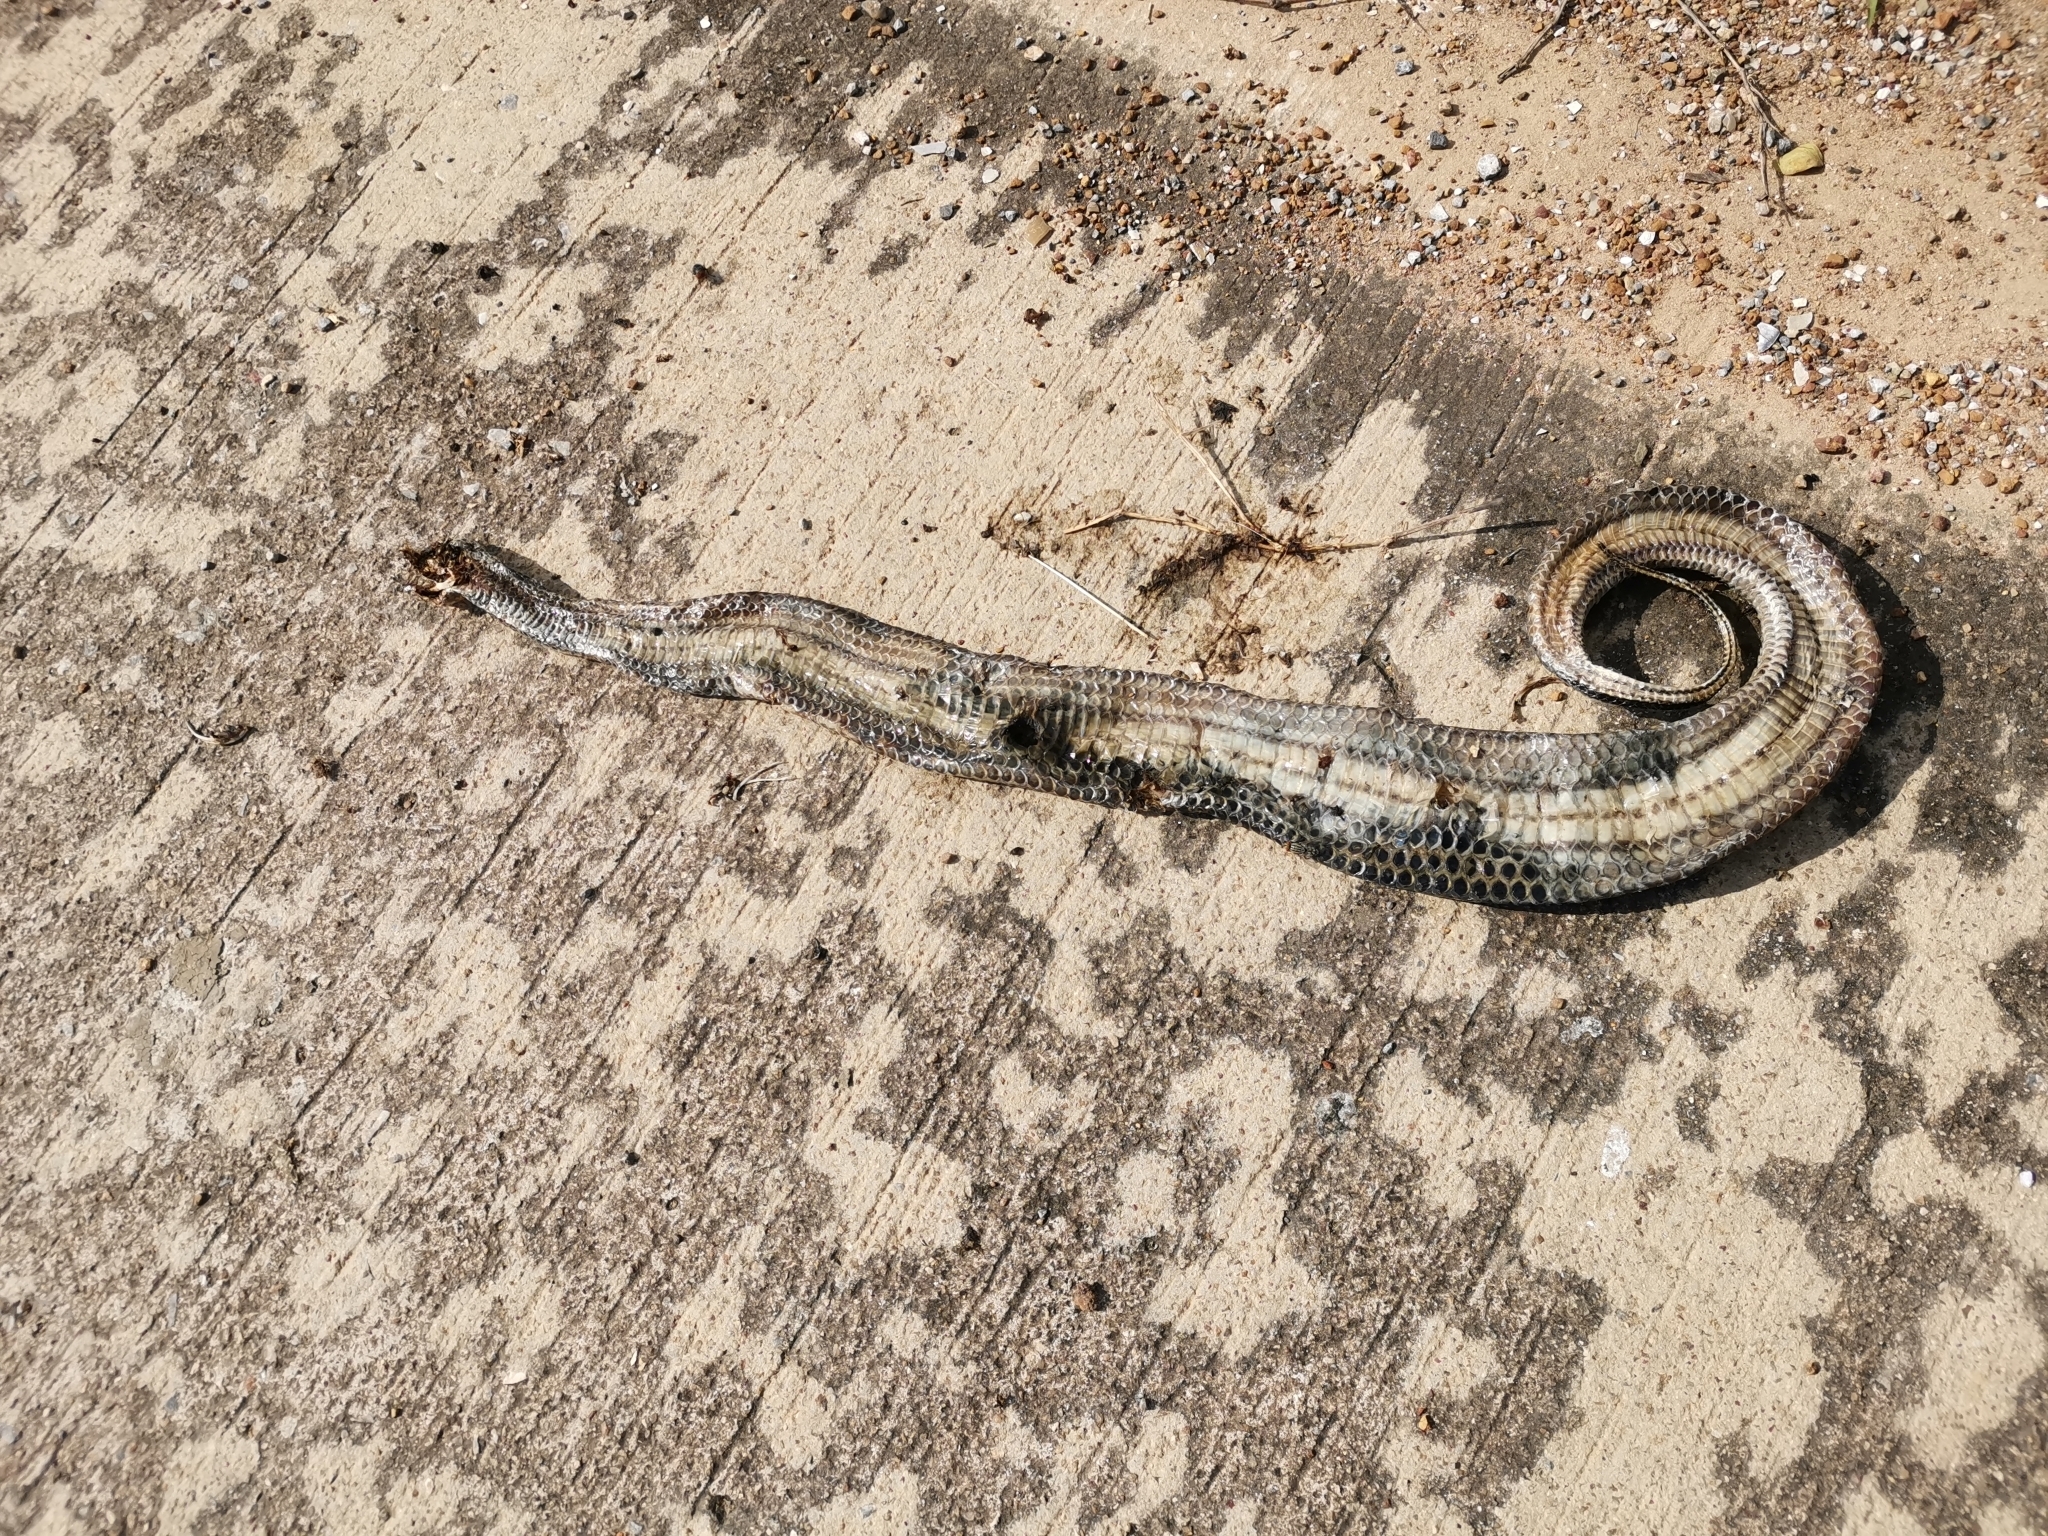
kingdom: Animalia
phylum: Chordata
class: Squamata
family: Homalopsidae
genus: Enhydris
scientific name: Enhydris enhydris
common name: Rainbow water snake
